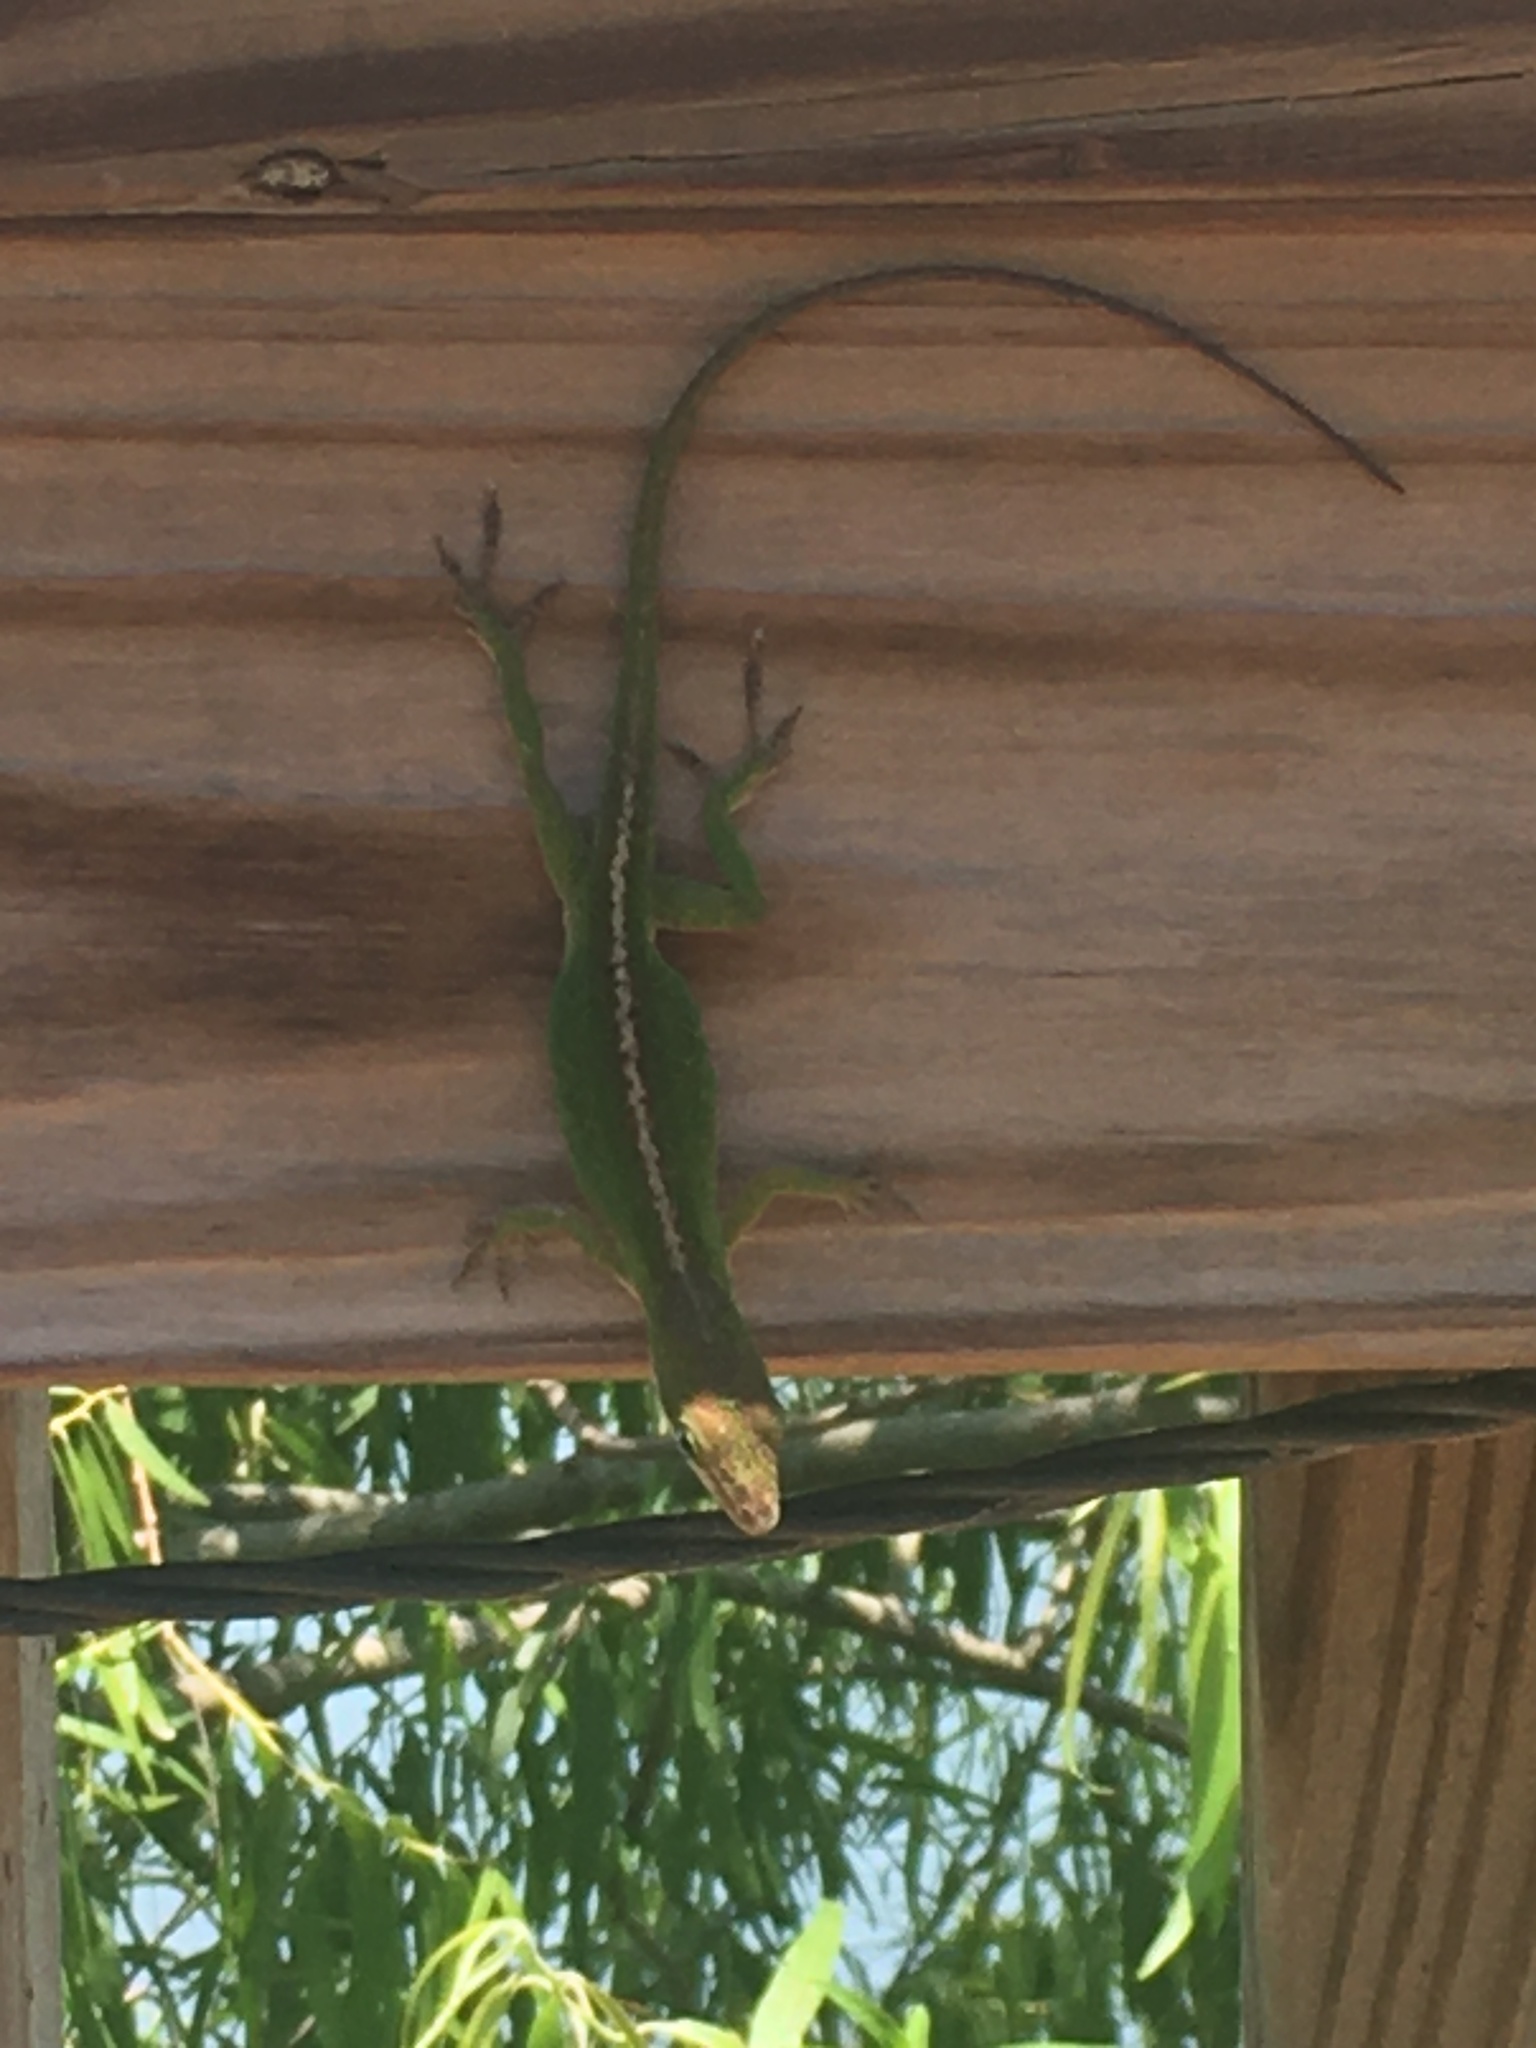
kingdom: Animalia
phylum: Chordata
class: Squamata
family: Dactyloidae
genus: Anolis
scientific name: Anolis carolinensis
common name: Green anole
